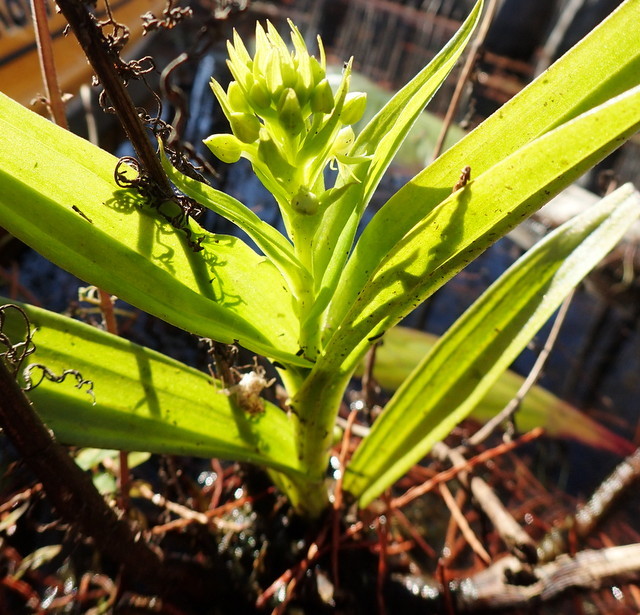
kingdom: Plantae
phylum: Tracheophyta
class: Liliopsida
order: Asparagales
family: Orchidaceae
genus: Habenaria
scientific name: Habenaria repens
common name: Water orchid
